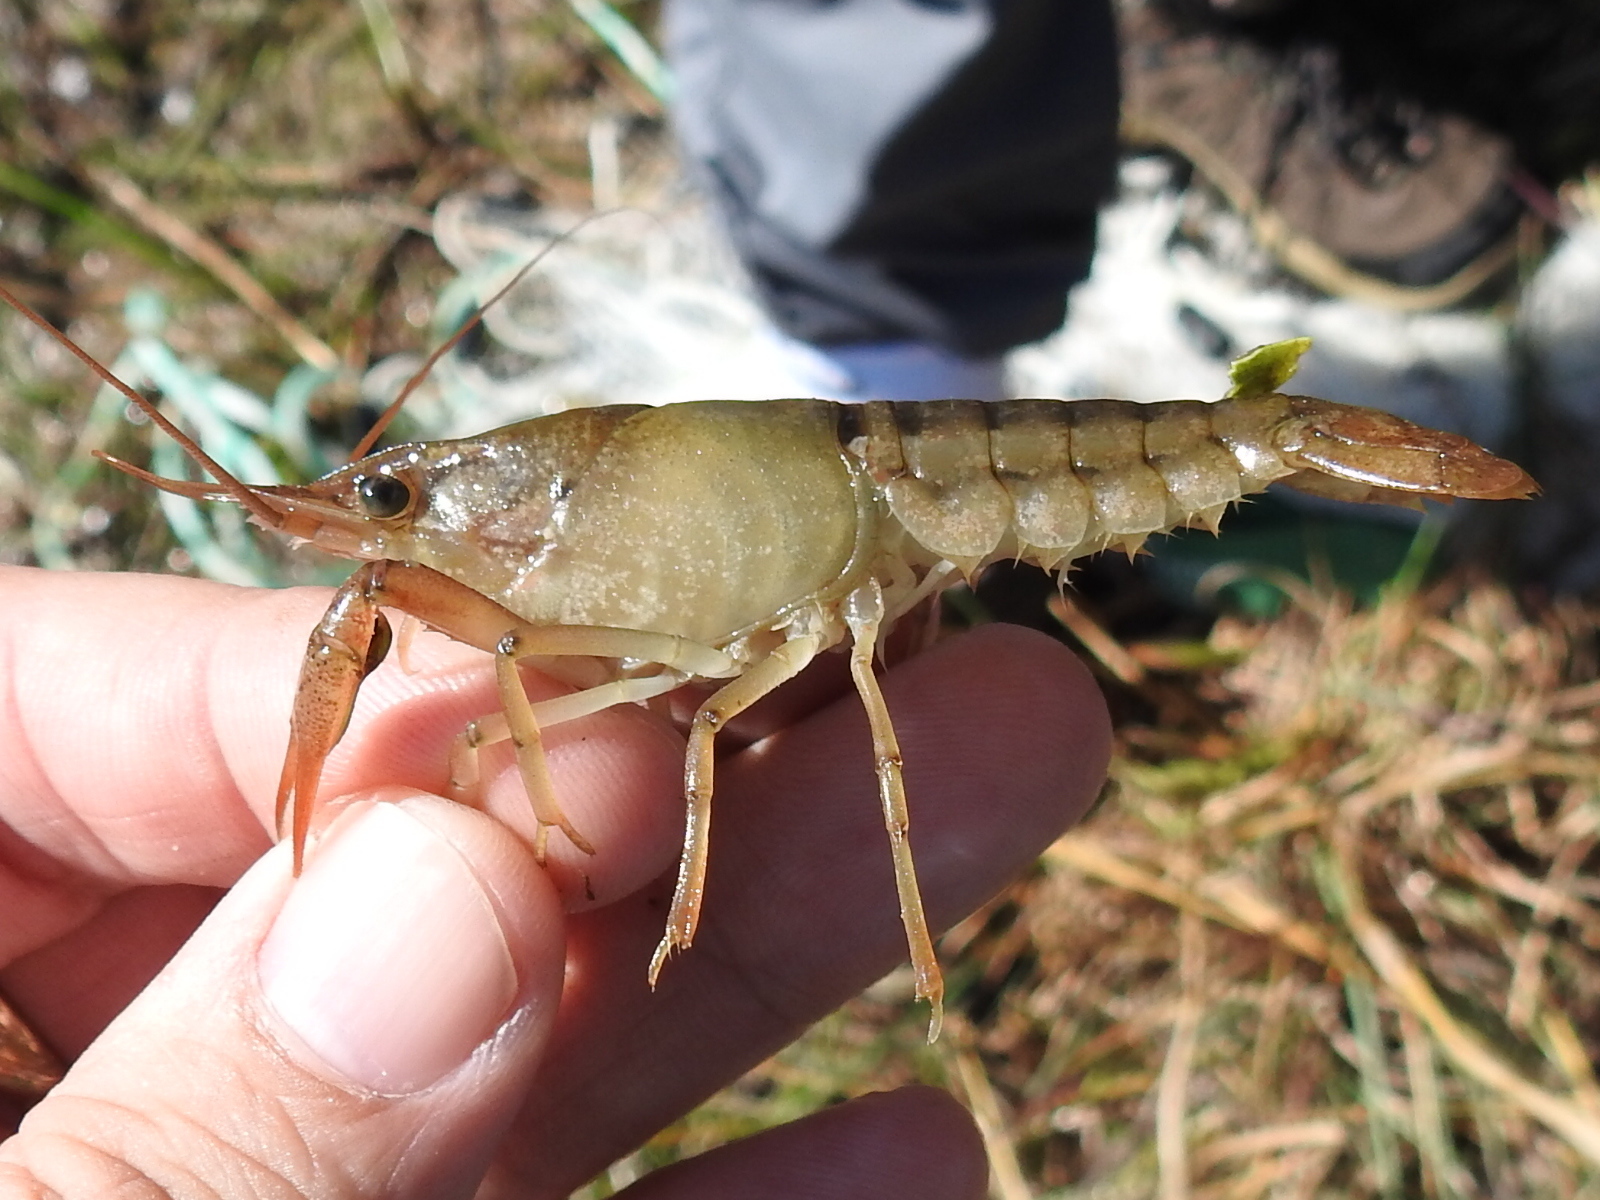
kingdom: Animalia
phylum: Arthropoda
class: Malacostraca
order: Decapoda
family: Cambaridae
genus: Procambarus
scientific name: Procambarus acutus
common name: White river crayfish
